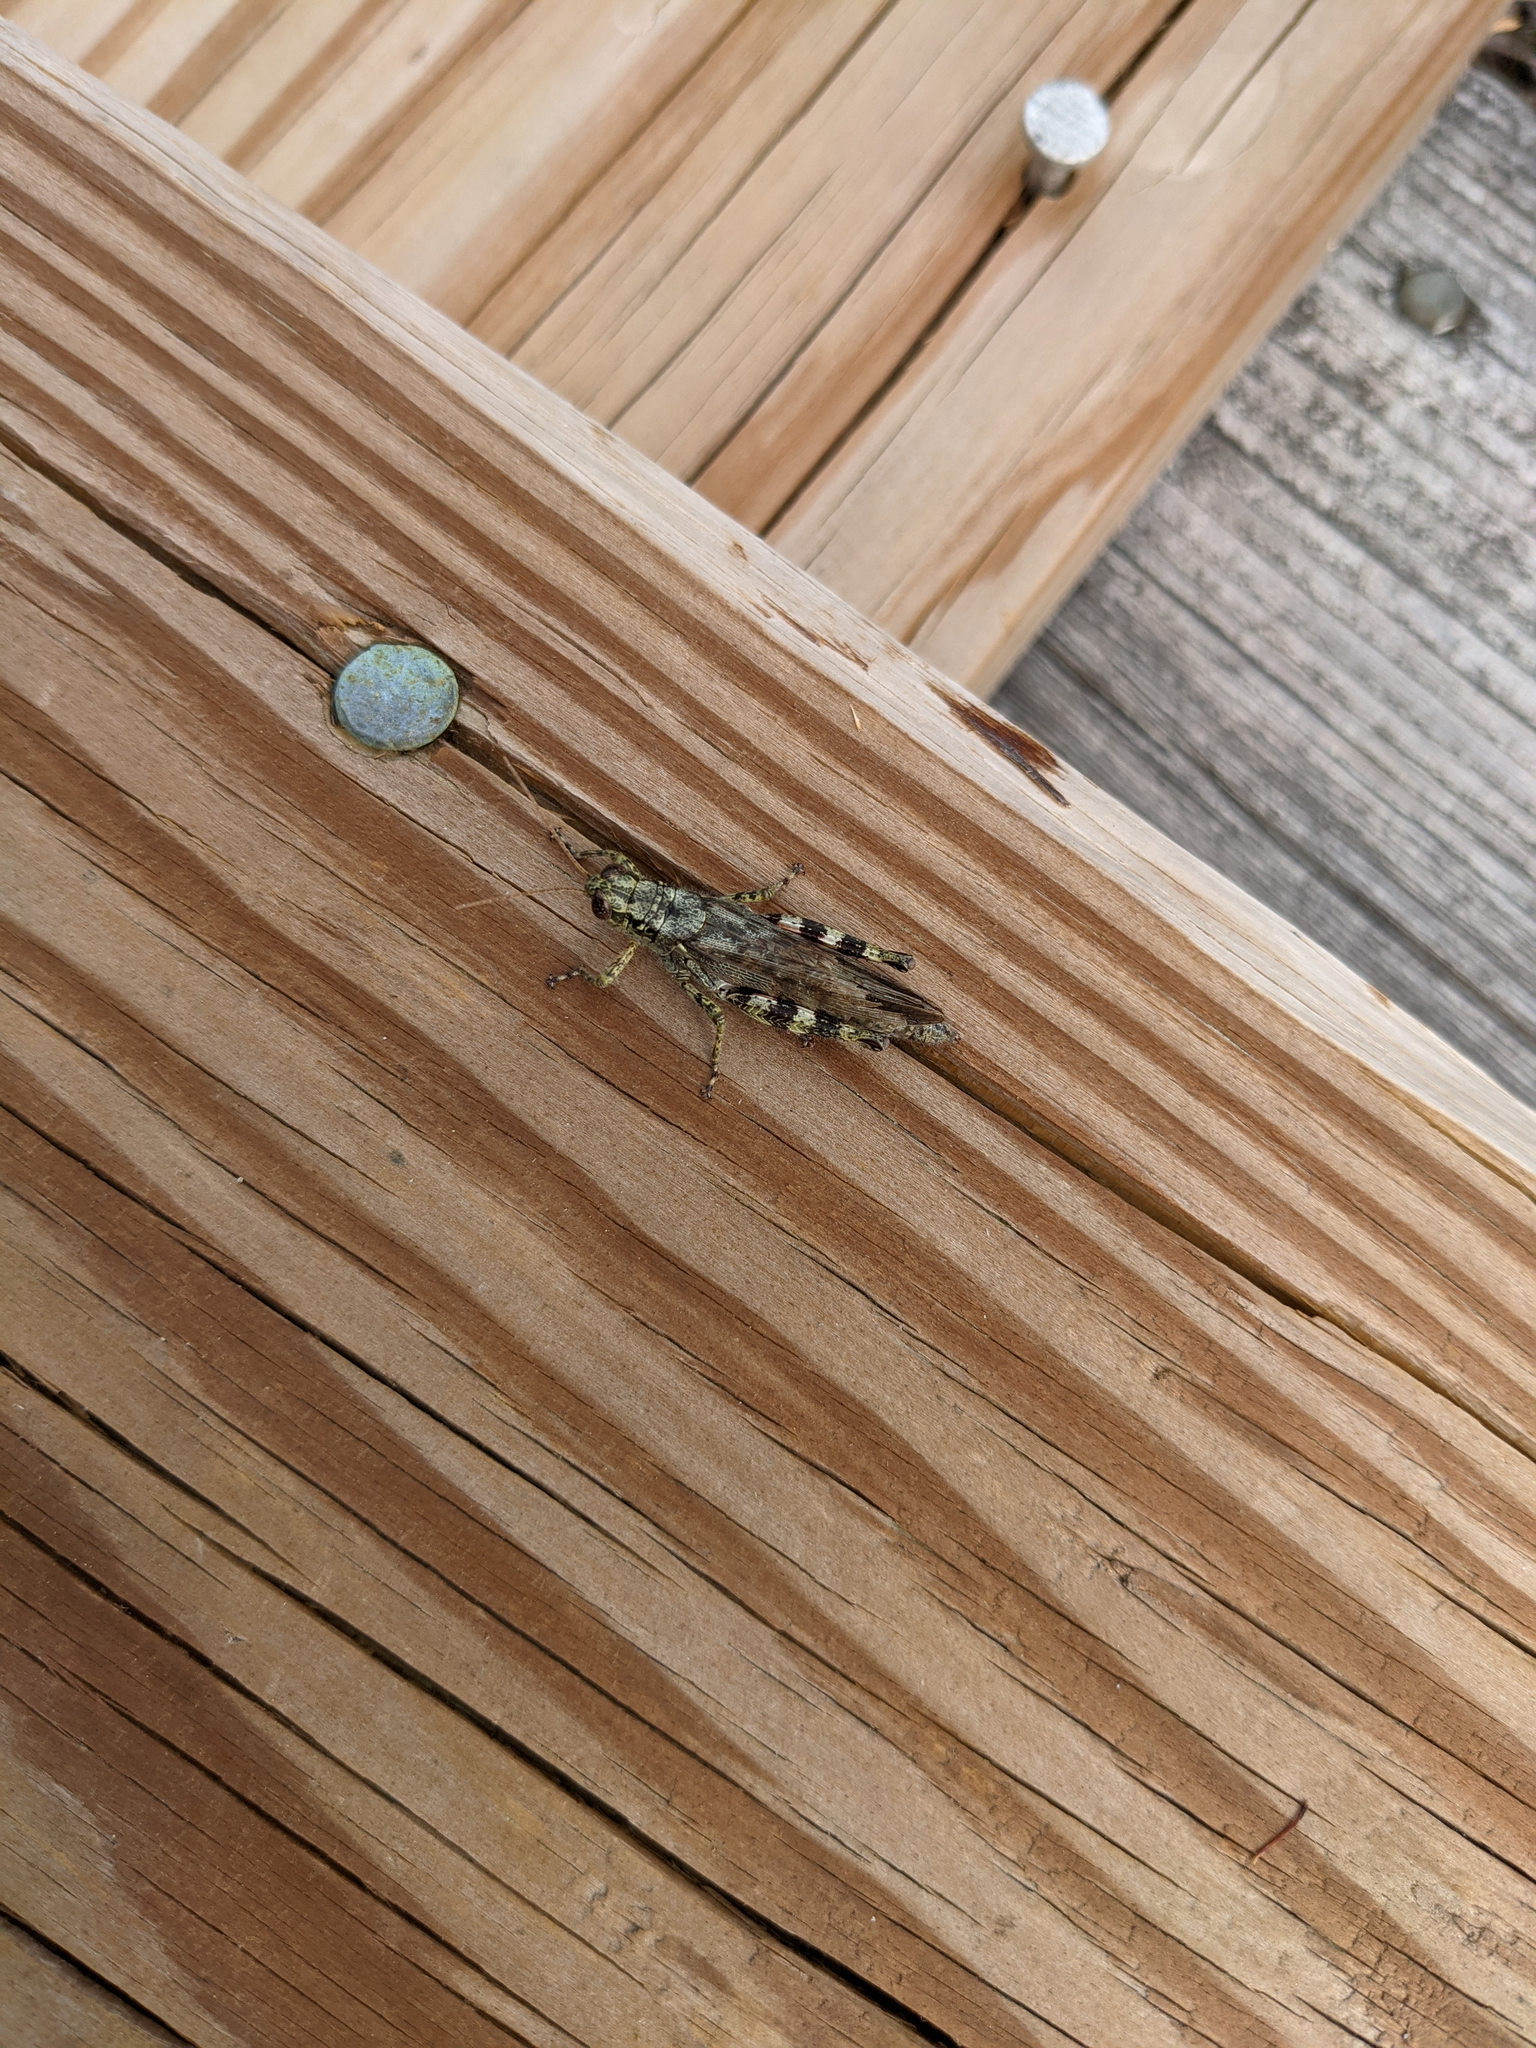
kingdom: Animalia
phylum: Arthropoda
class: Insecta
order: Orthoptera
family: Acrididae
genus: Melanoplus
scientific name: Melanoplus punctulatus
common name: Pine-tree spur-throat grasshopper
